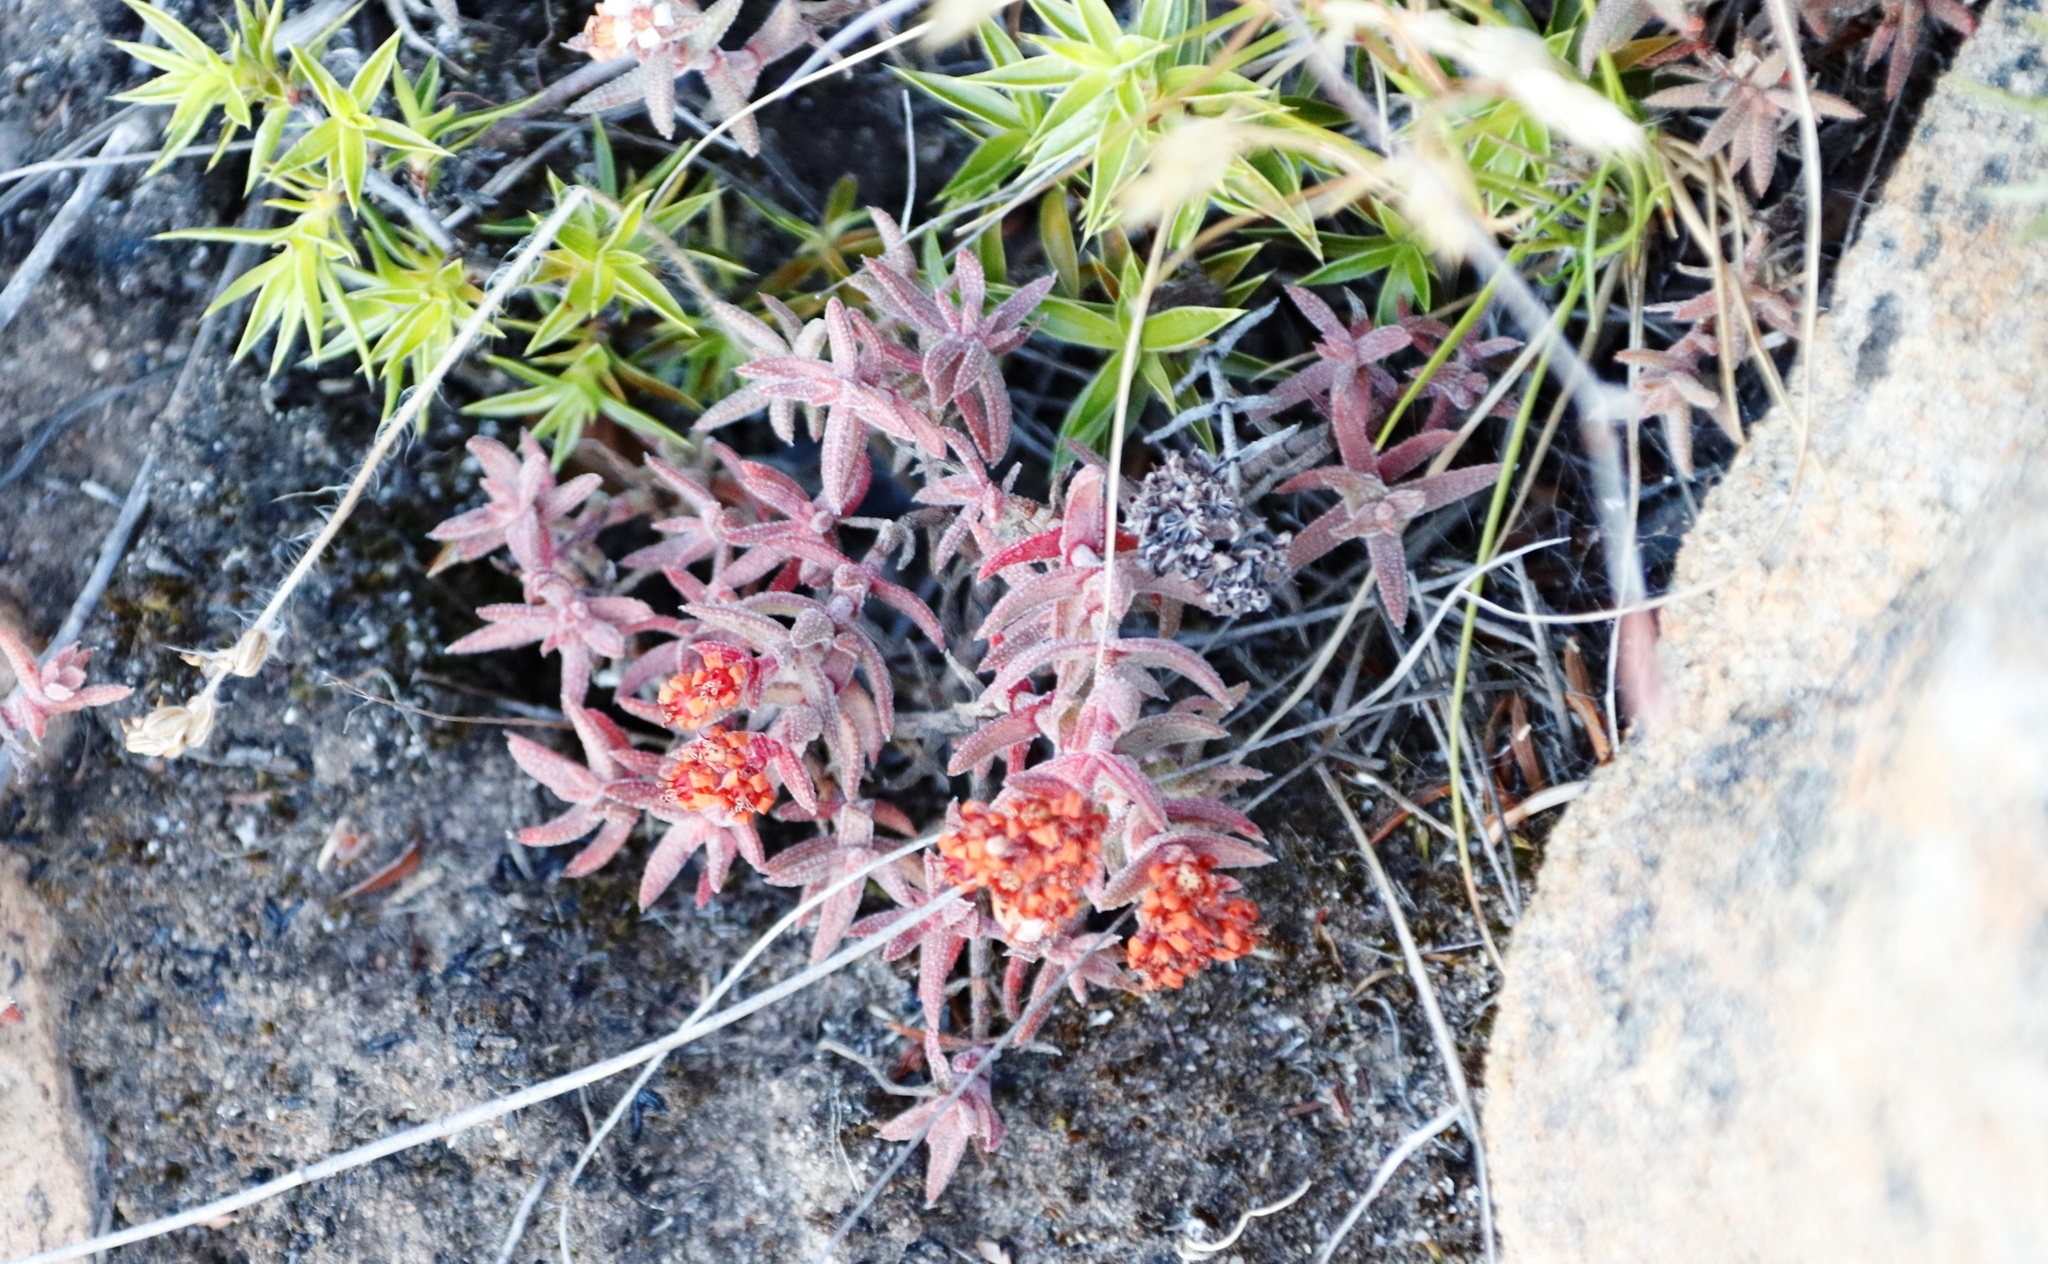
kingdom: Plantae
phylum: Tracheophyta
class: Magnoliopsida
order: Saxifragales
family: Crassulaceae
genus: Crassula
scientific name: Crassula pruinosa
